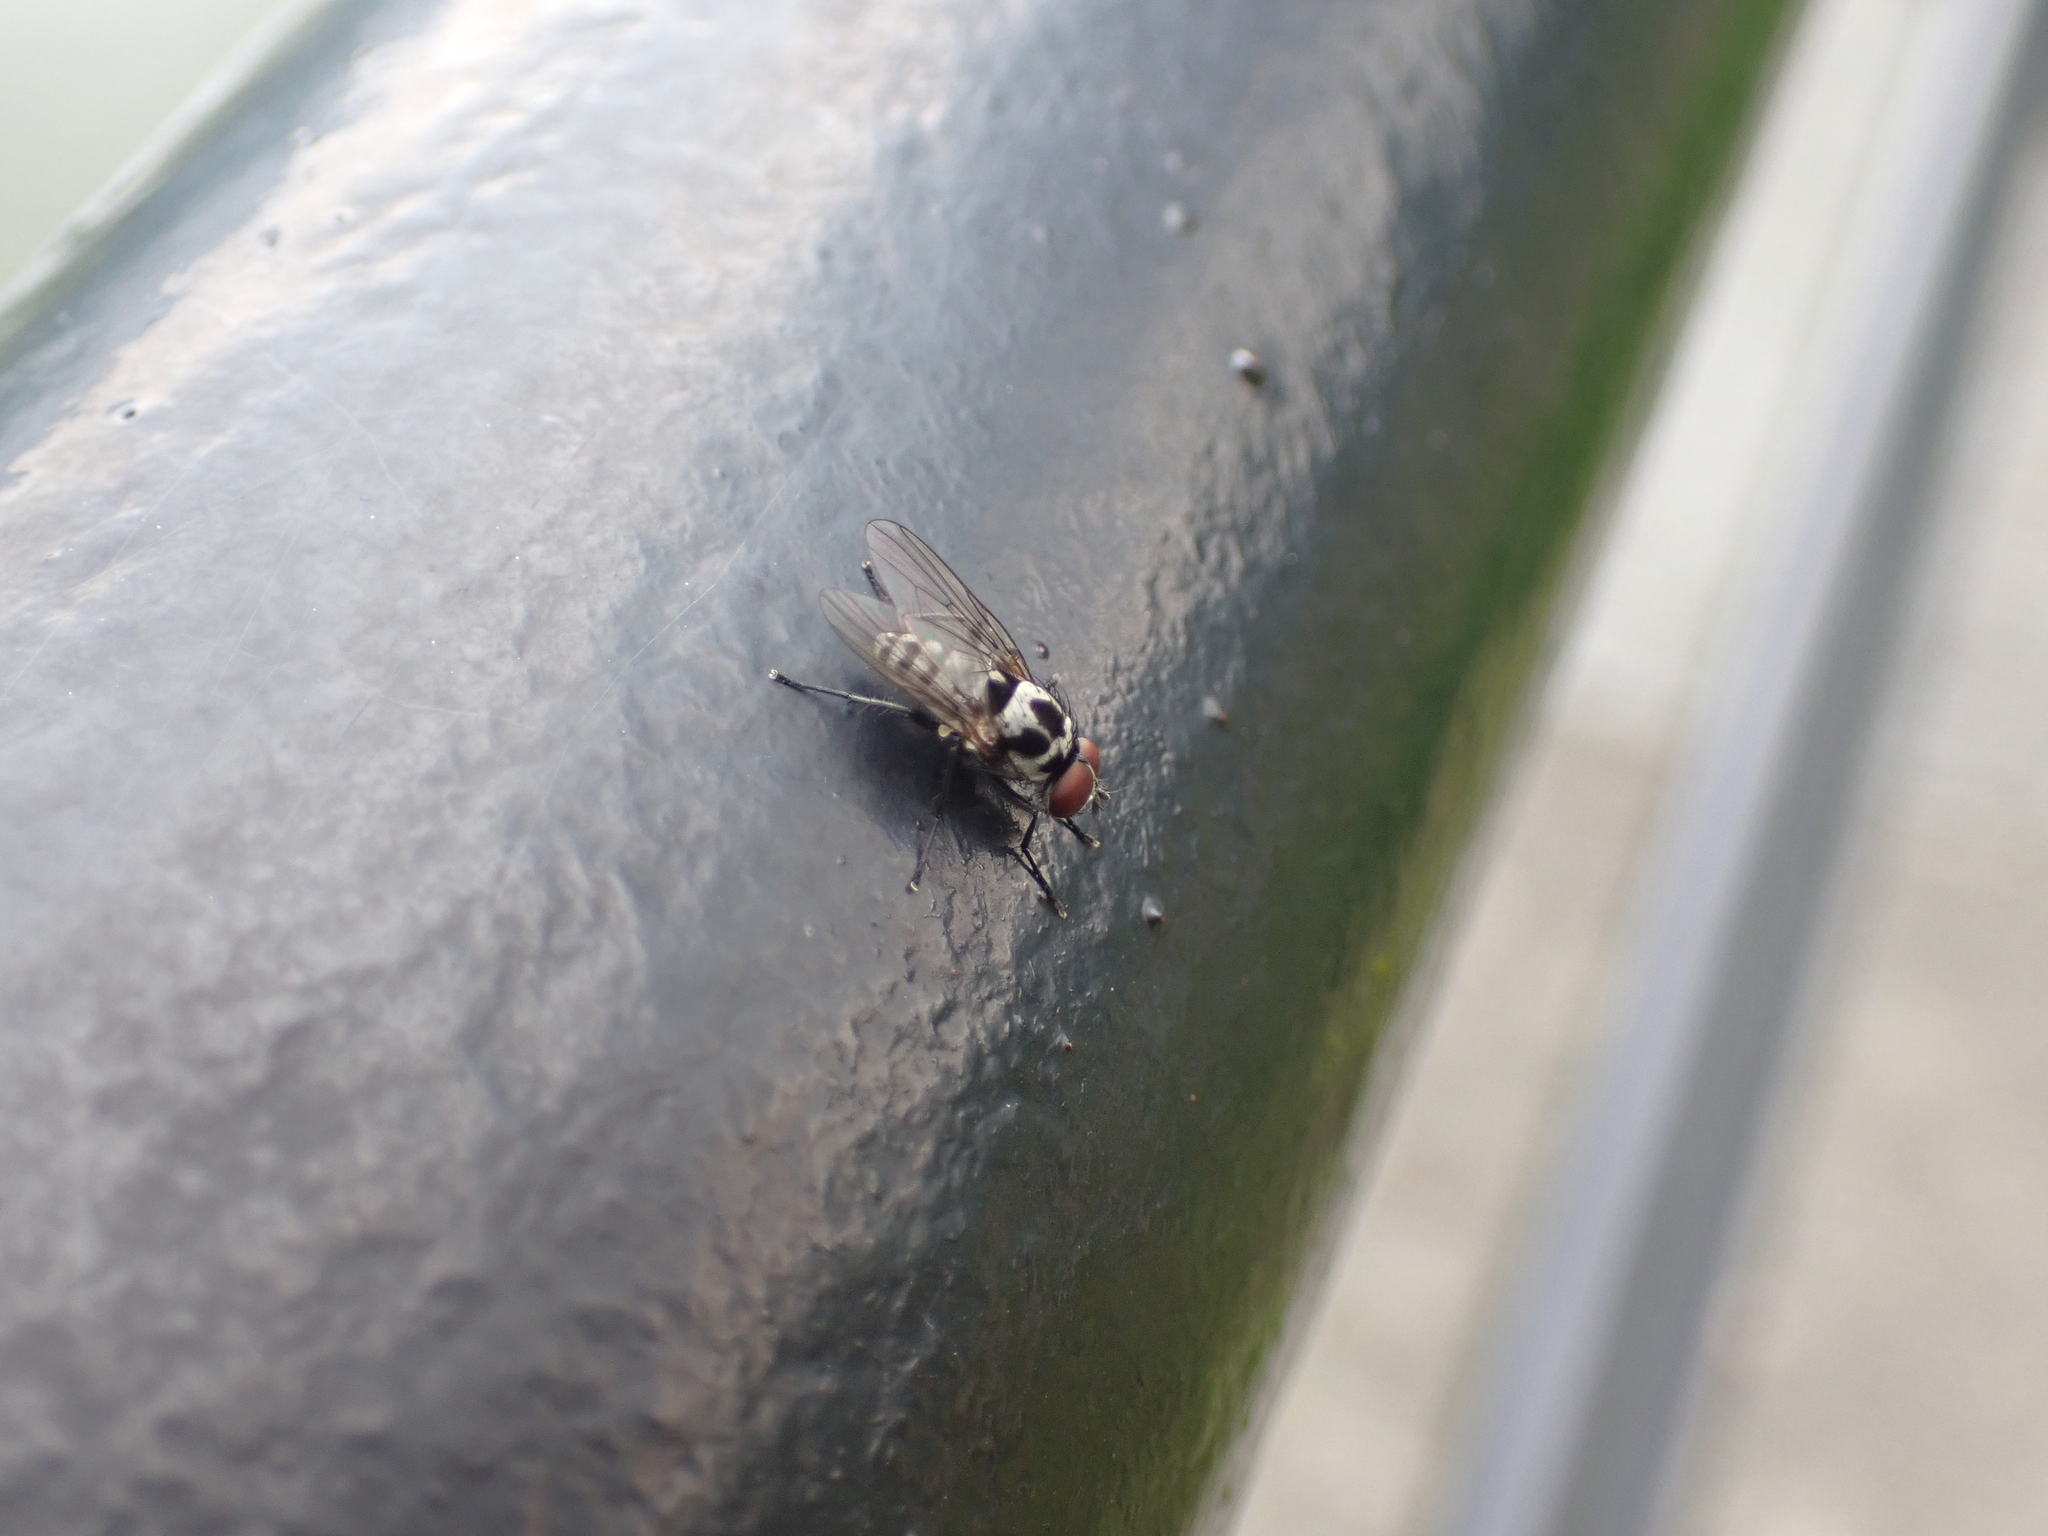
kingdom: Animalia
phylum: Arthropoda
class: Insecta
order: Diptera
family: Anthomyiidae
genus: Anthomyia
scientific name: Anthomyia imbrida
